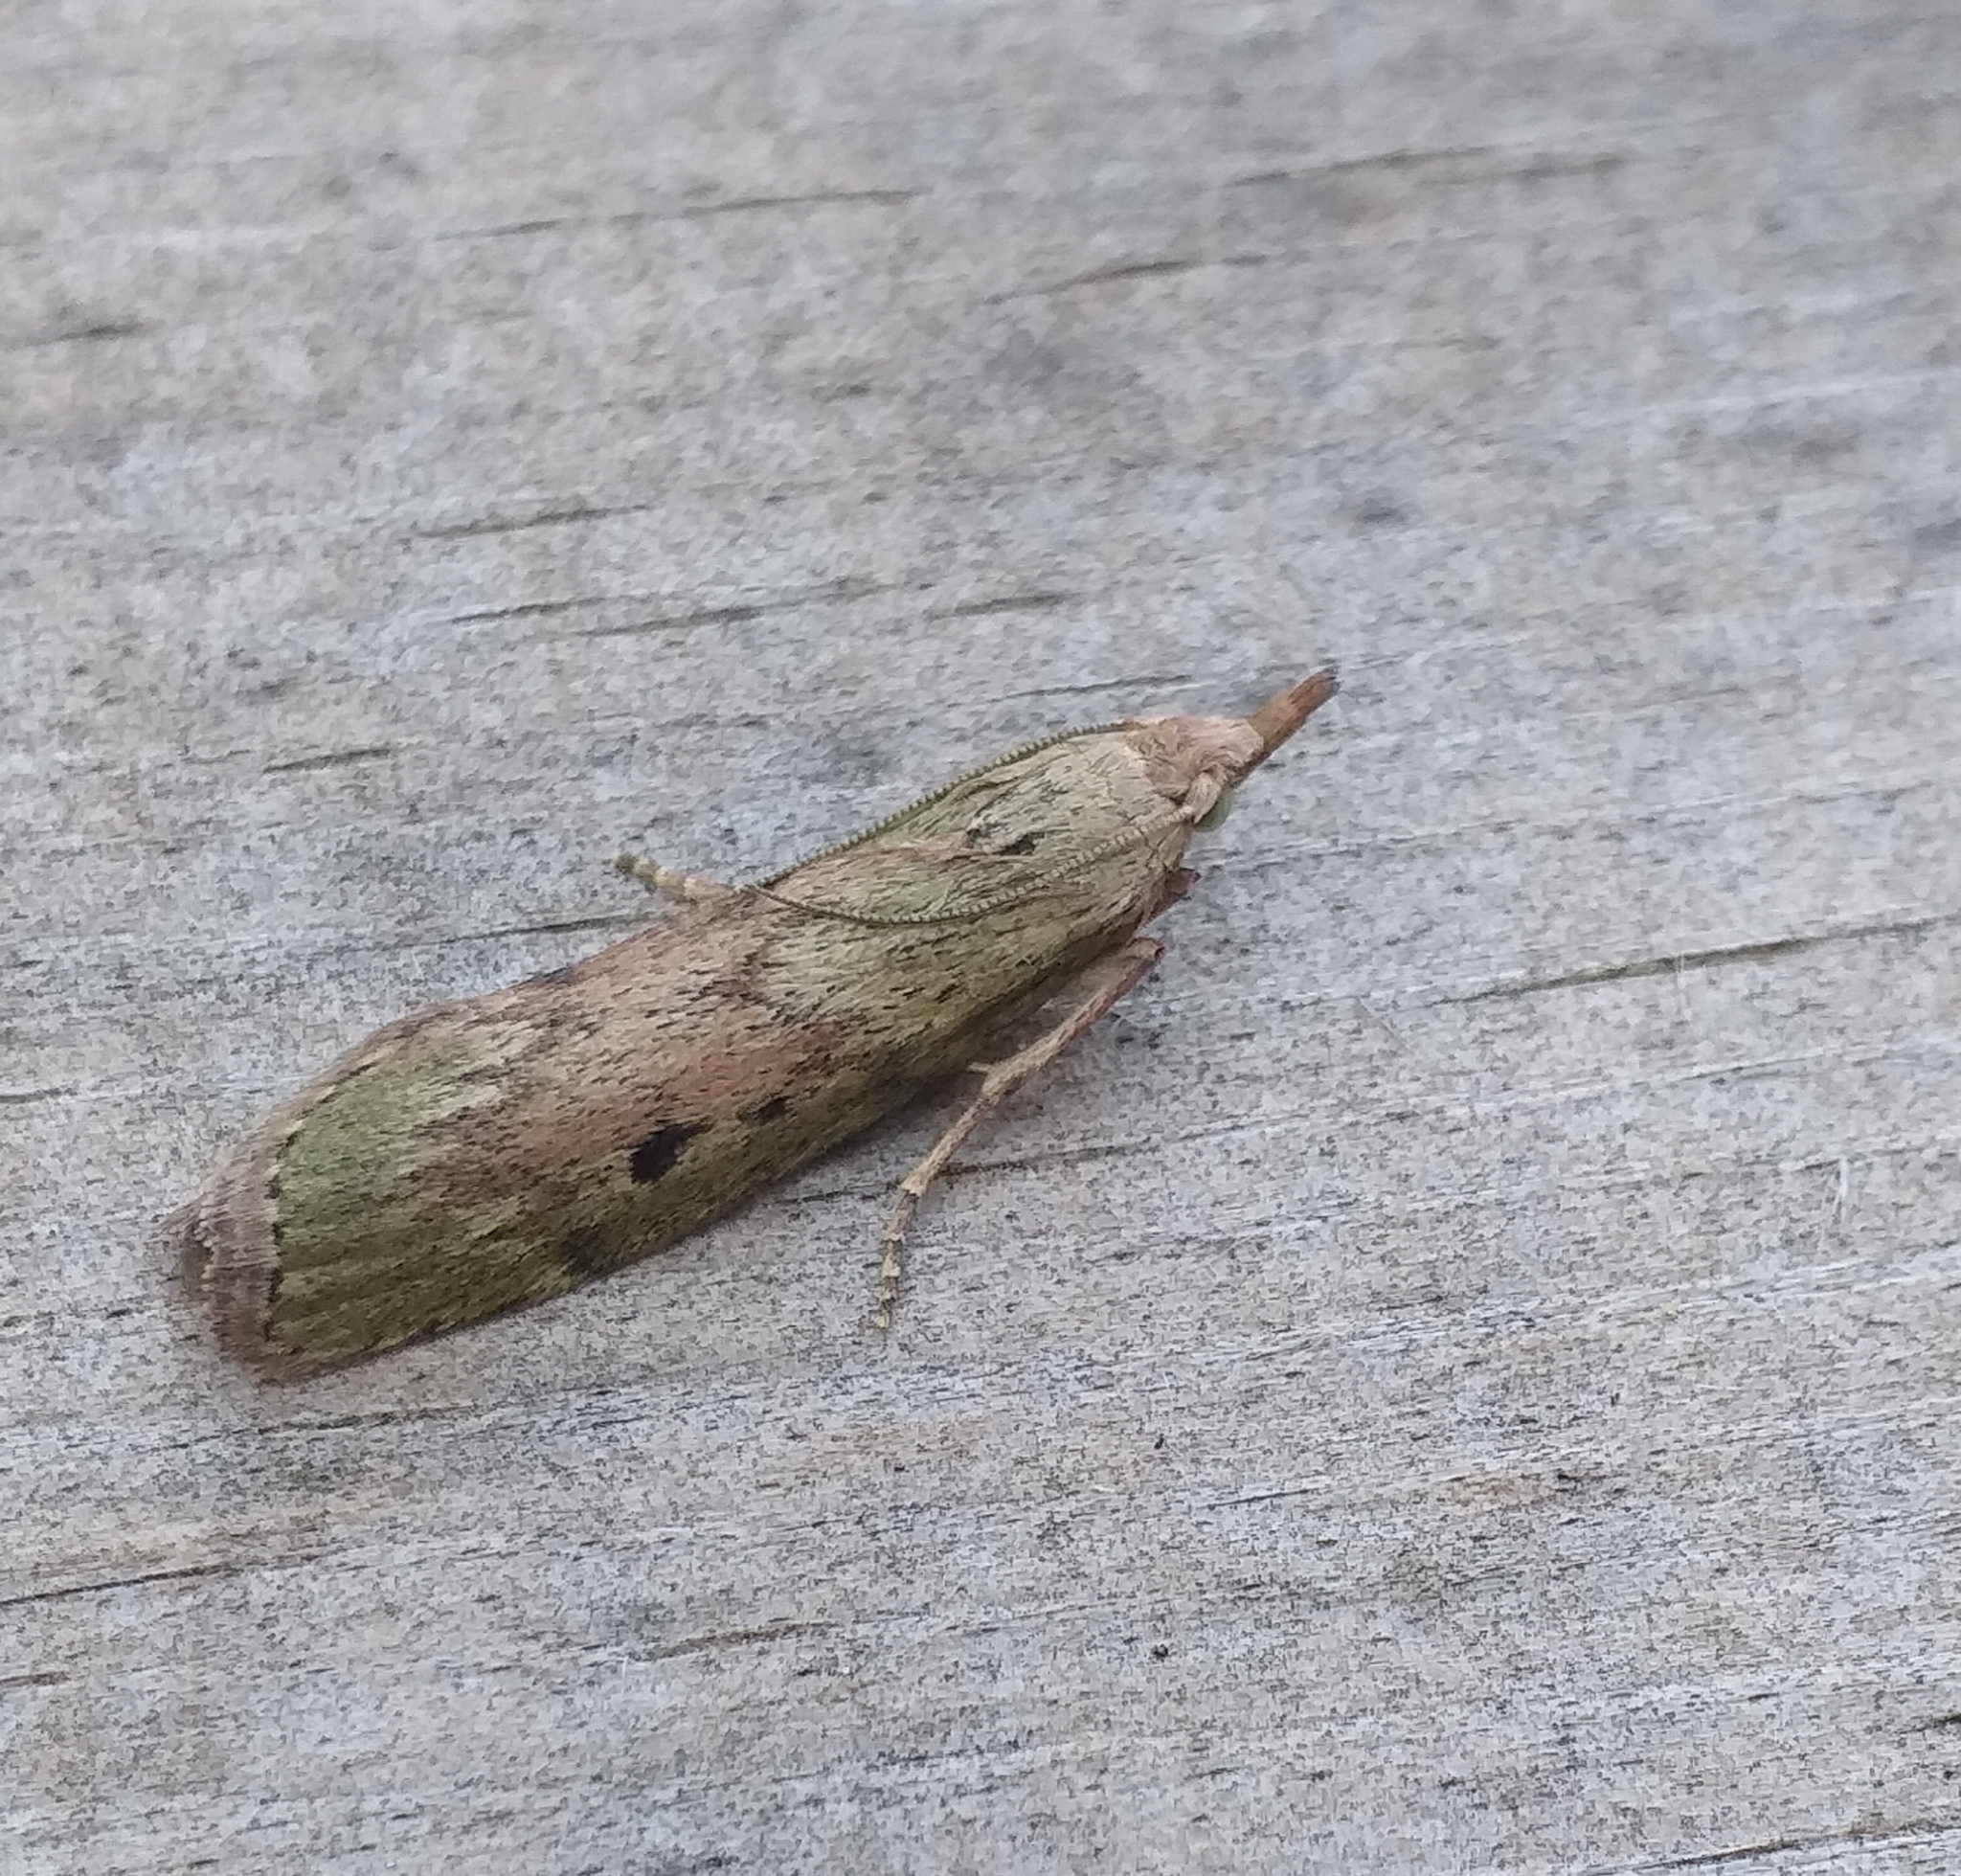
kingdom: Animalia
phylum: Arthropoda
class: Insecta
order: Lepidoptera
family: Pyralidae
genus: Aphomia
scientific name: Aphomia sociella
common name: Bee moth
